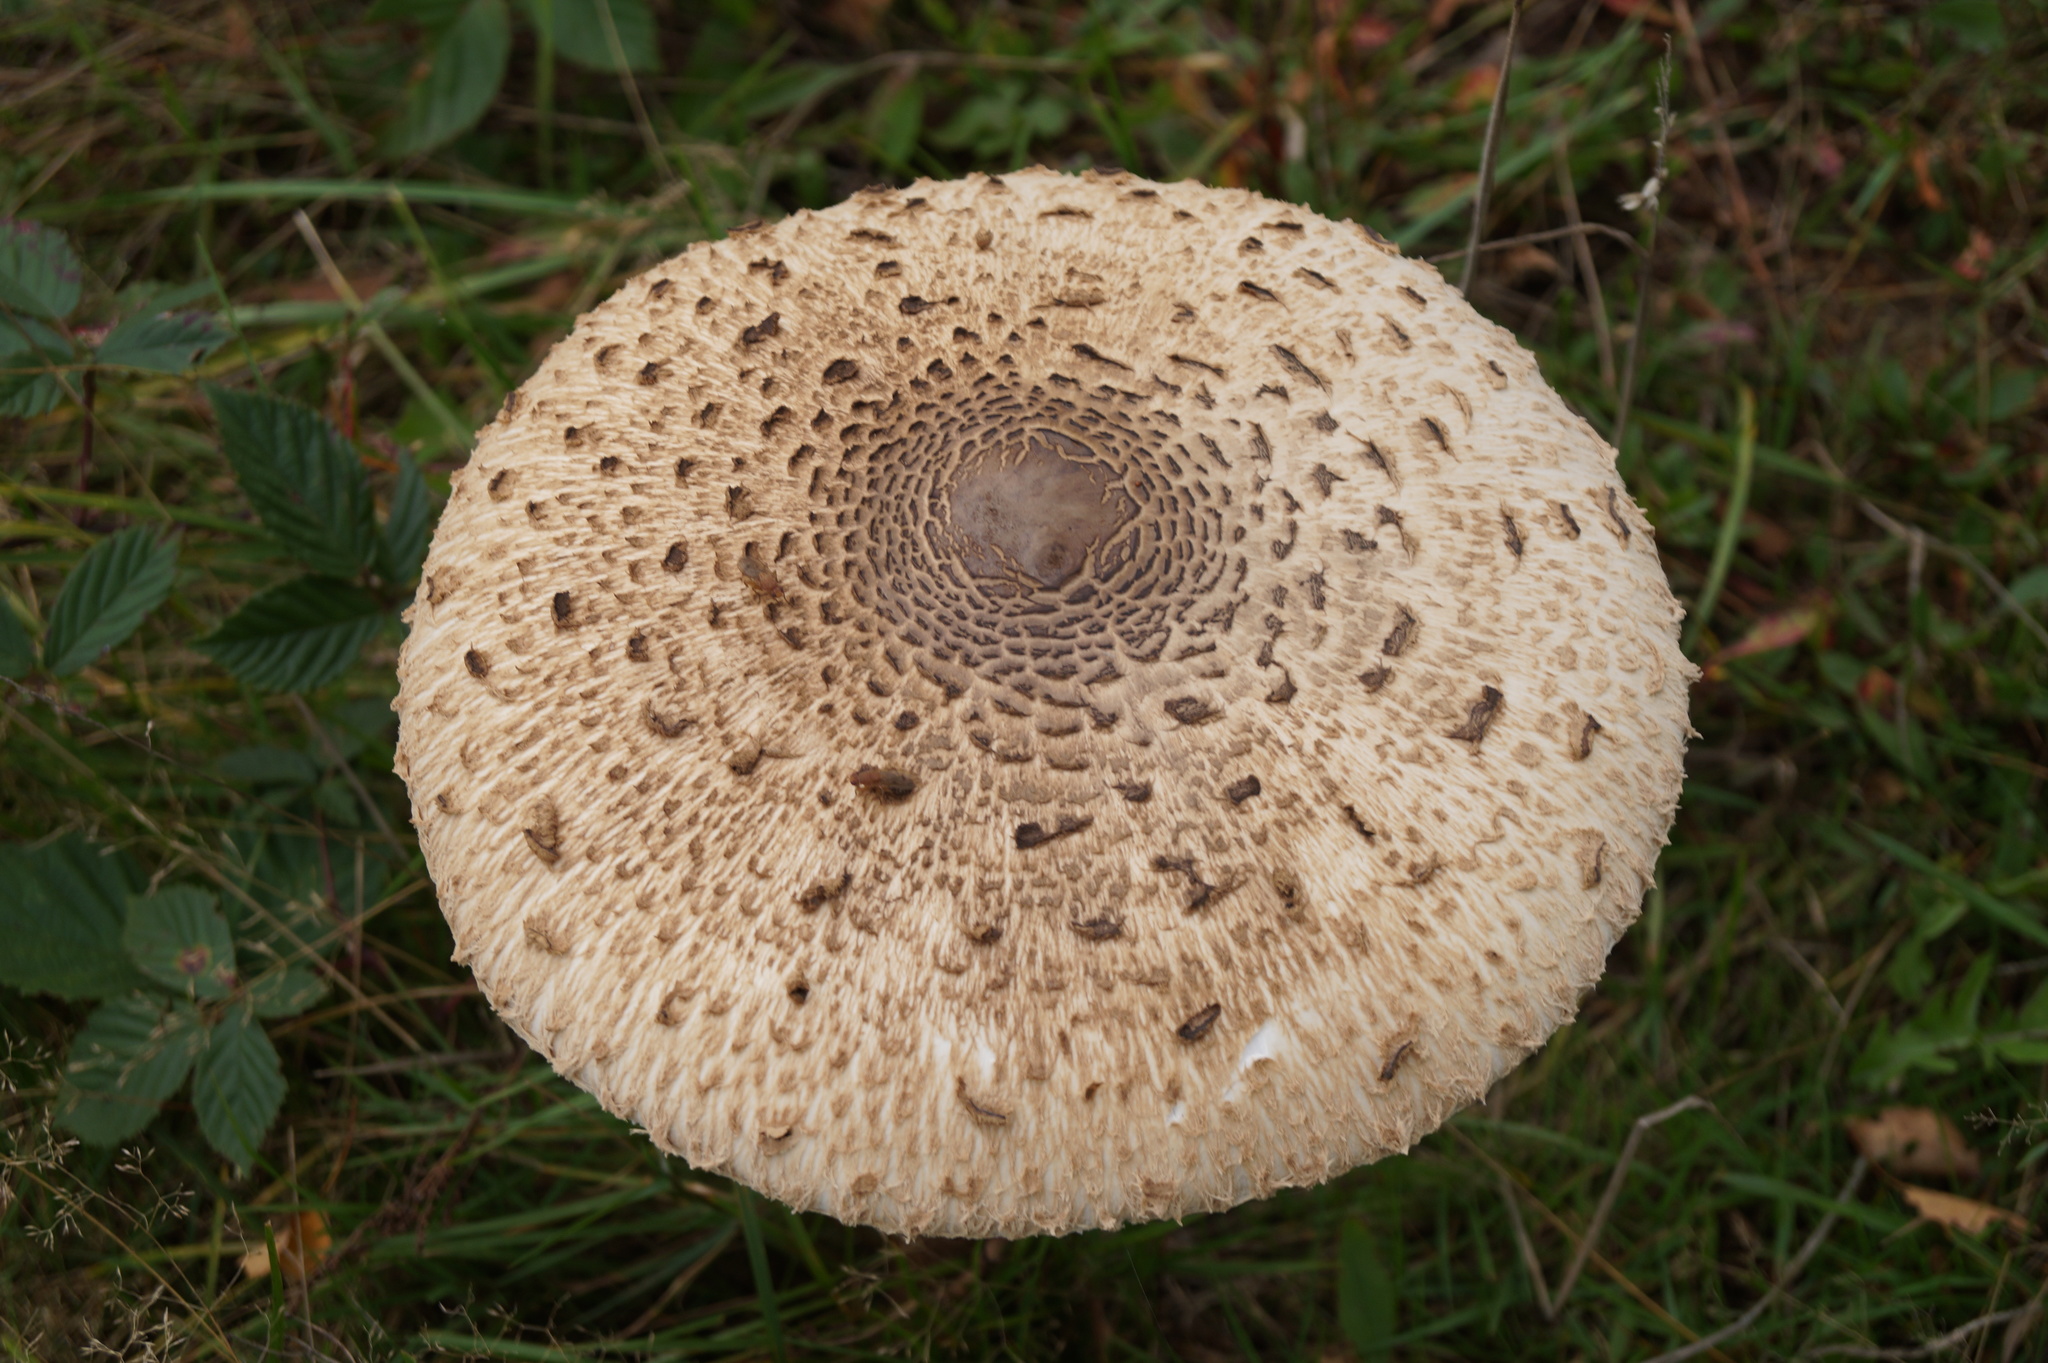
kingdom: Fungi
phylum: Basidiomycota
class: Agaricomycetes
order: Agaricales
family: Agaricaceae
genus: Macrolepiota
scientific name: Macrolepiota procera
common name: Parasol
